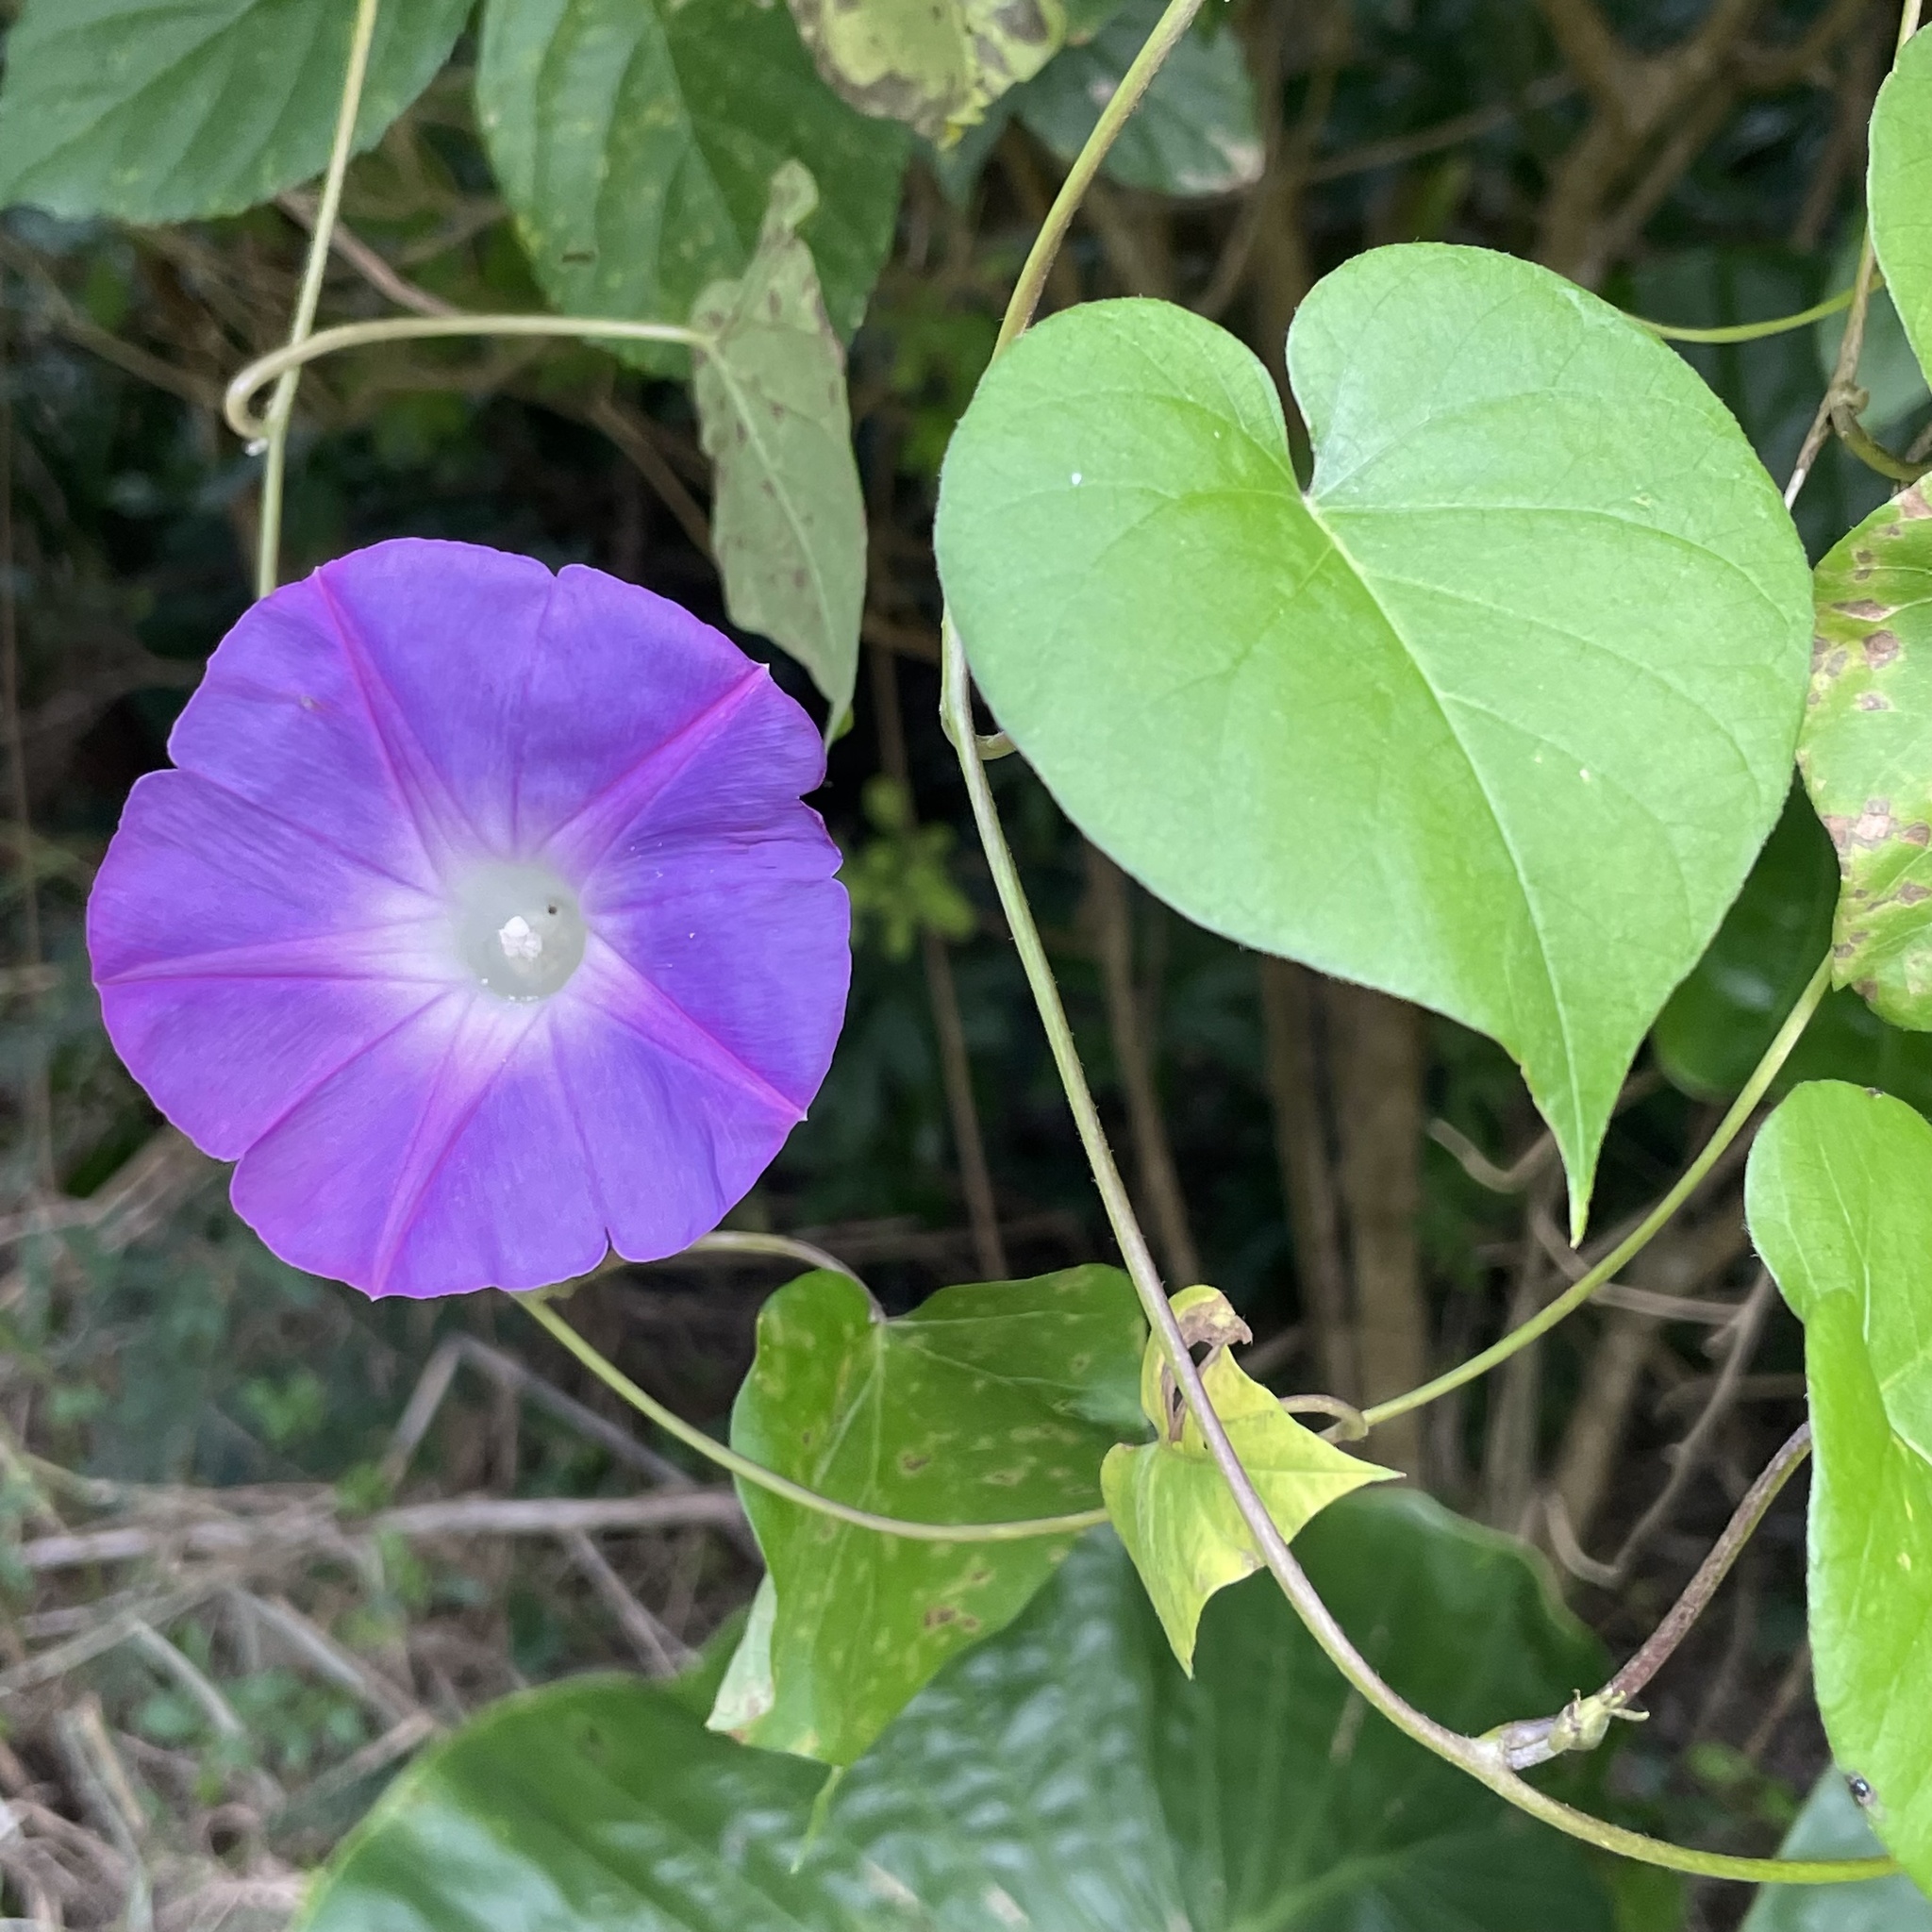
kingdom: Plantae
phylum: Tracheophyta
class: Magnoliopsida
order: Solanales
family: Convolvulaceae
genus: Ipomoea
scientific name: Ipomoea indica
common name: Blue dawnflower
